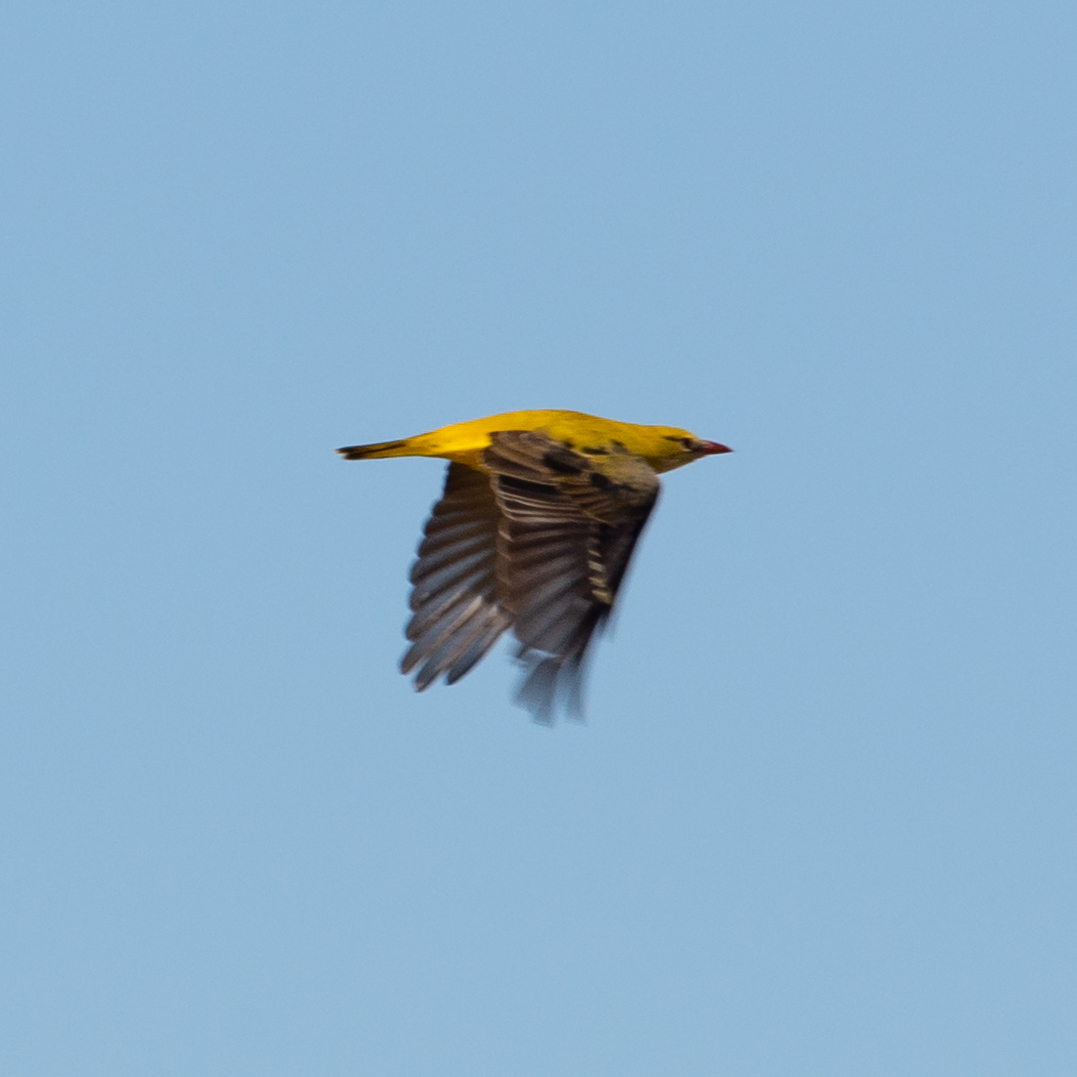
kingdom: Animalia
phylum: Chordata
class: Aves
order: Passeriformes
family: Oriolidae
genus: Oriolus
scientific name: Oriolus oriolus
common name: Eurasian golden oriole
